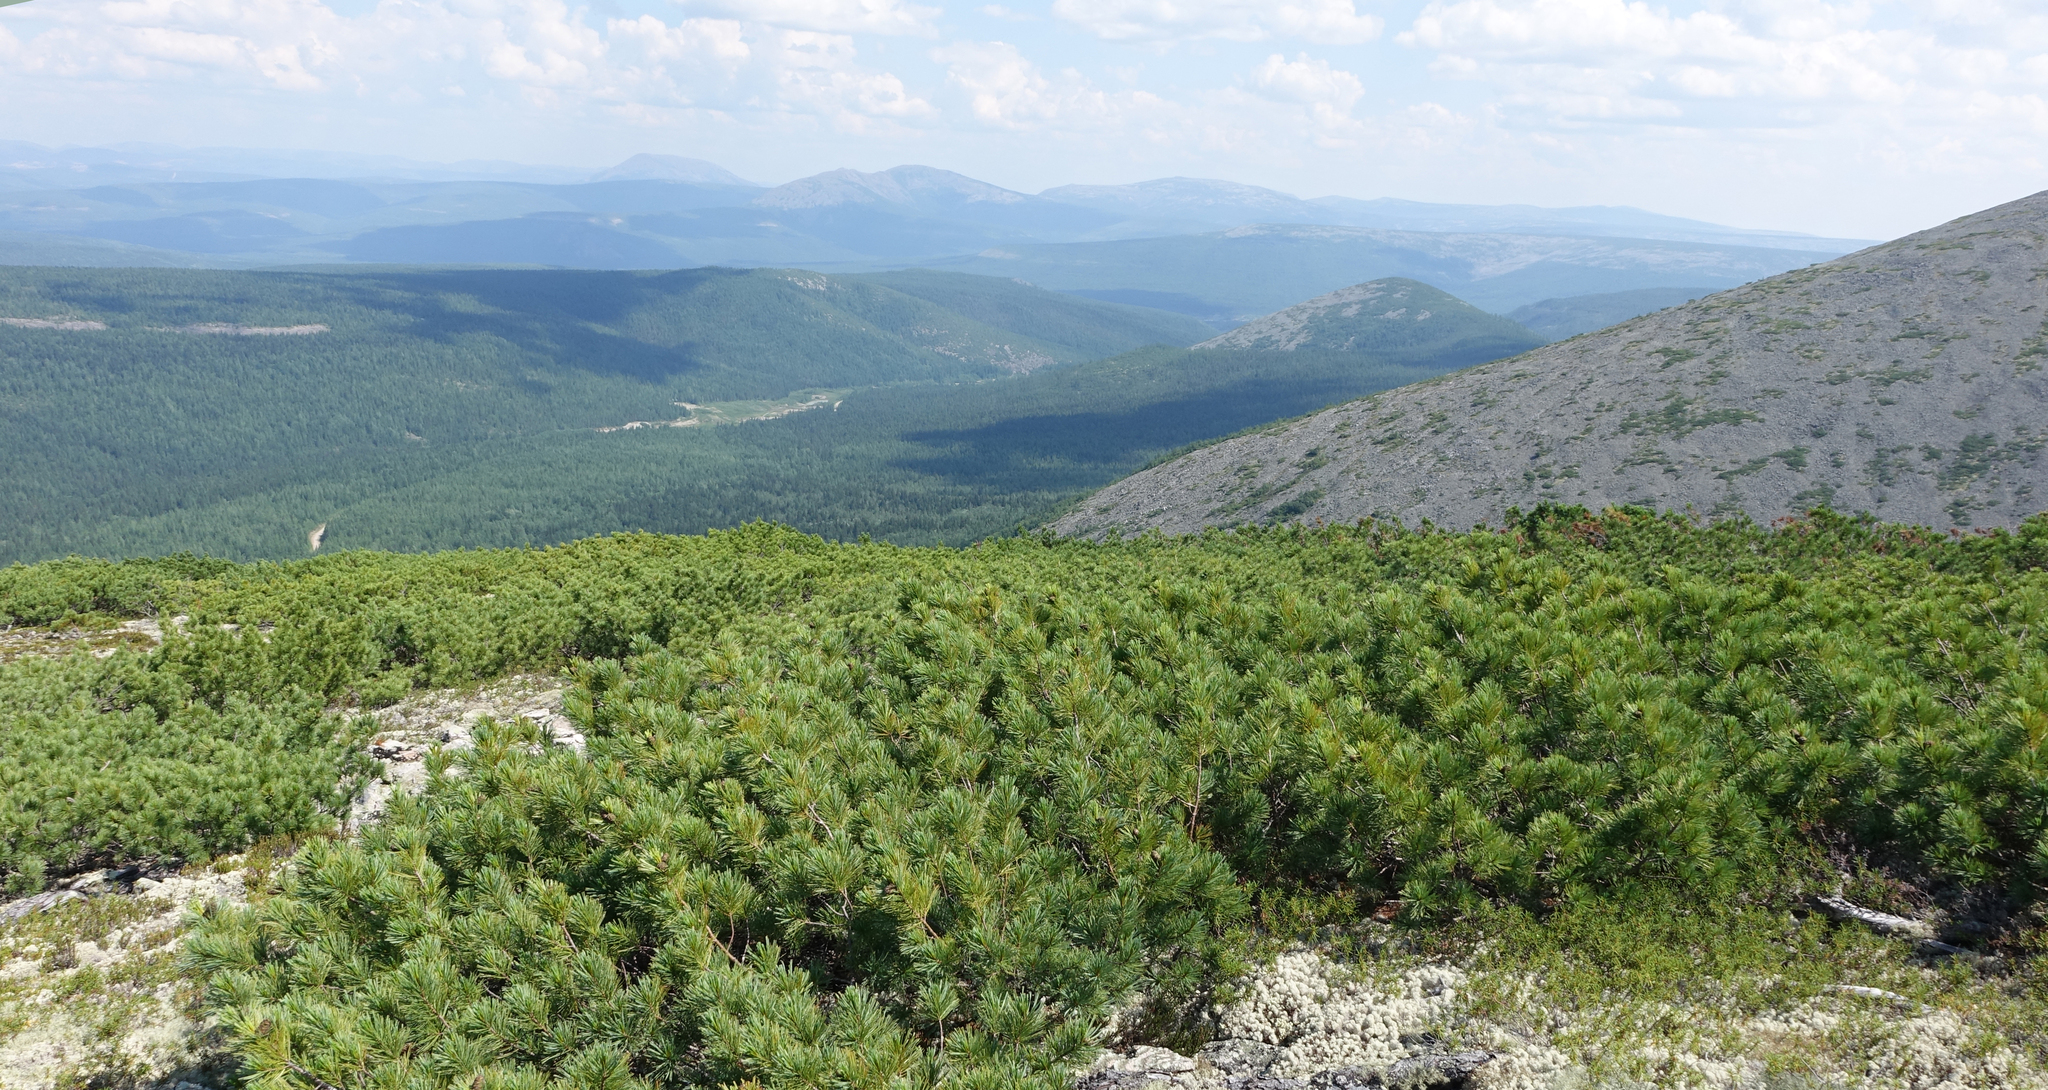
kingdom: Plantae
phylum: Tracheophyta
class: Pinopsida
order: Pinales
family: Pinaceae
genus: Pinus
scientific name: Pinus pumila
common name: Dwarf siberian pine
